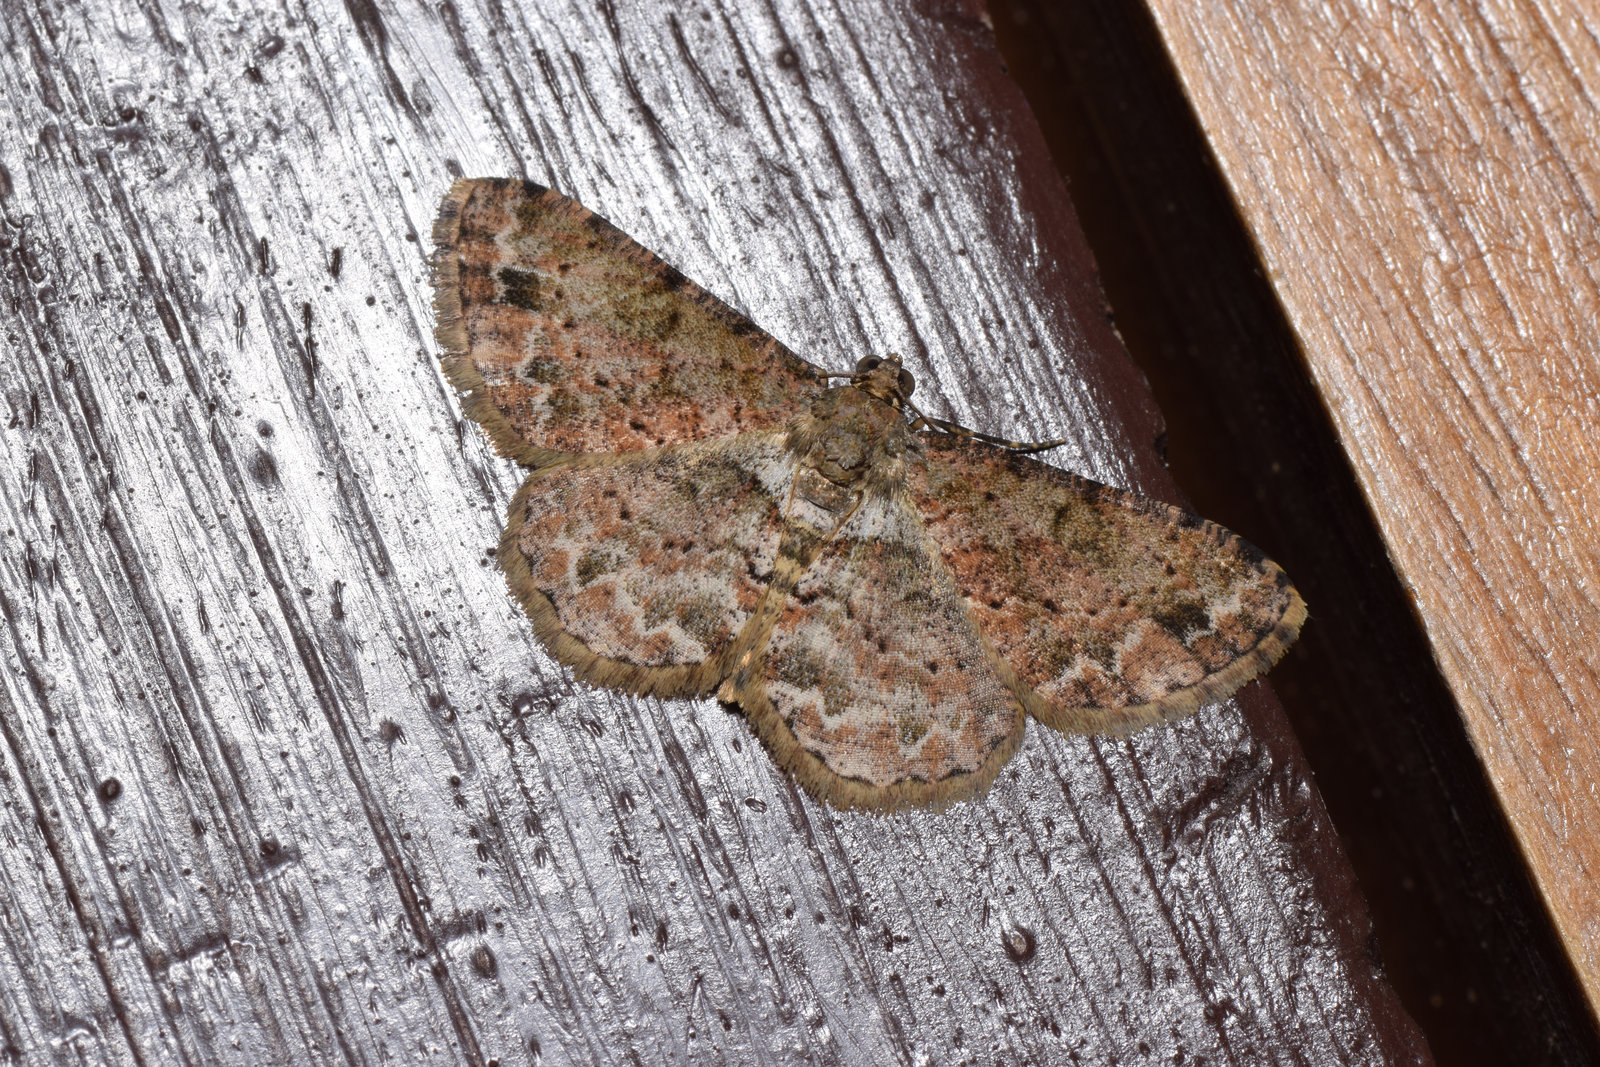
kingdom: Animalia
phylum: Arthropoda
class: Insecta
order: Lepidoptera
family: Geometridae
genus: Psilalcis
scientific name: Psilalcis subochrea
